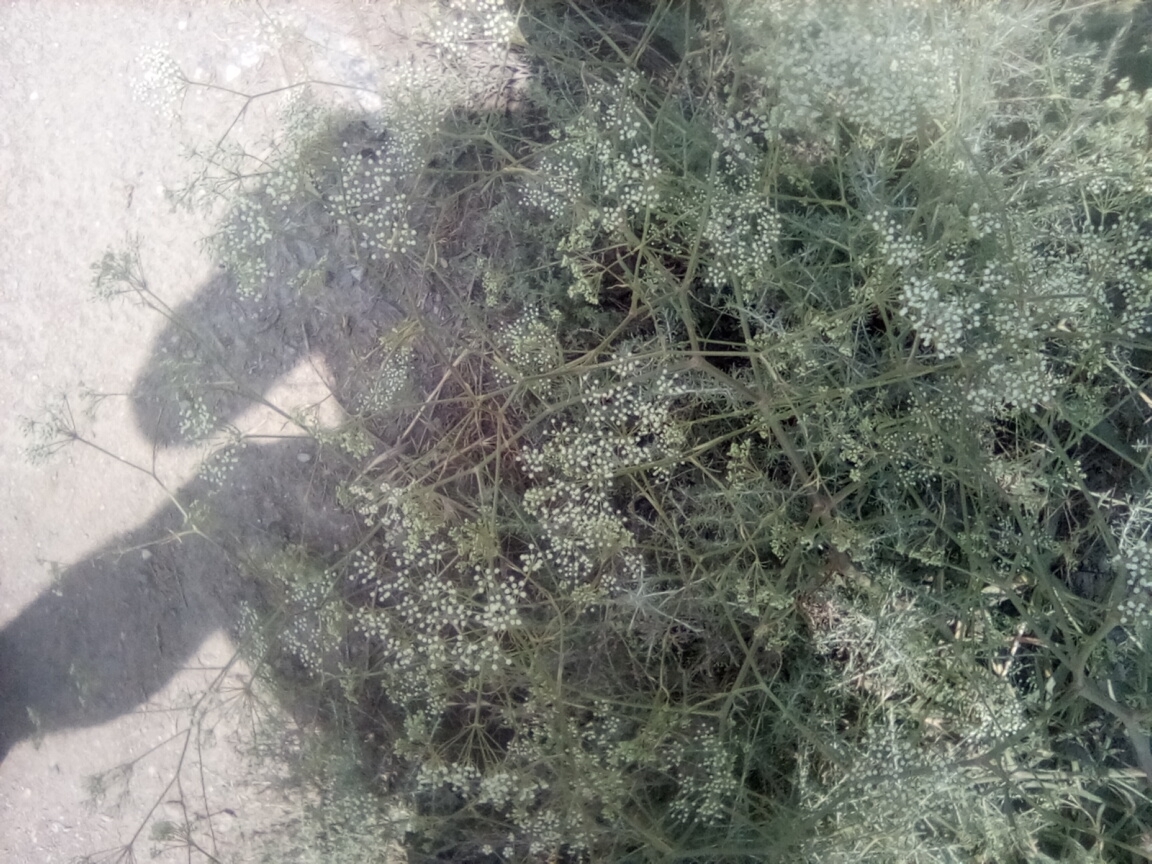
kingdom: Plantae
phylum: Tracheophyta
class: Magnoliopsida
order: Apiales
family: Apiaceae
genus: Falcaria
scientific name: Falcaria vulgaris
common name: Longleaf
